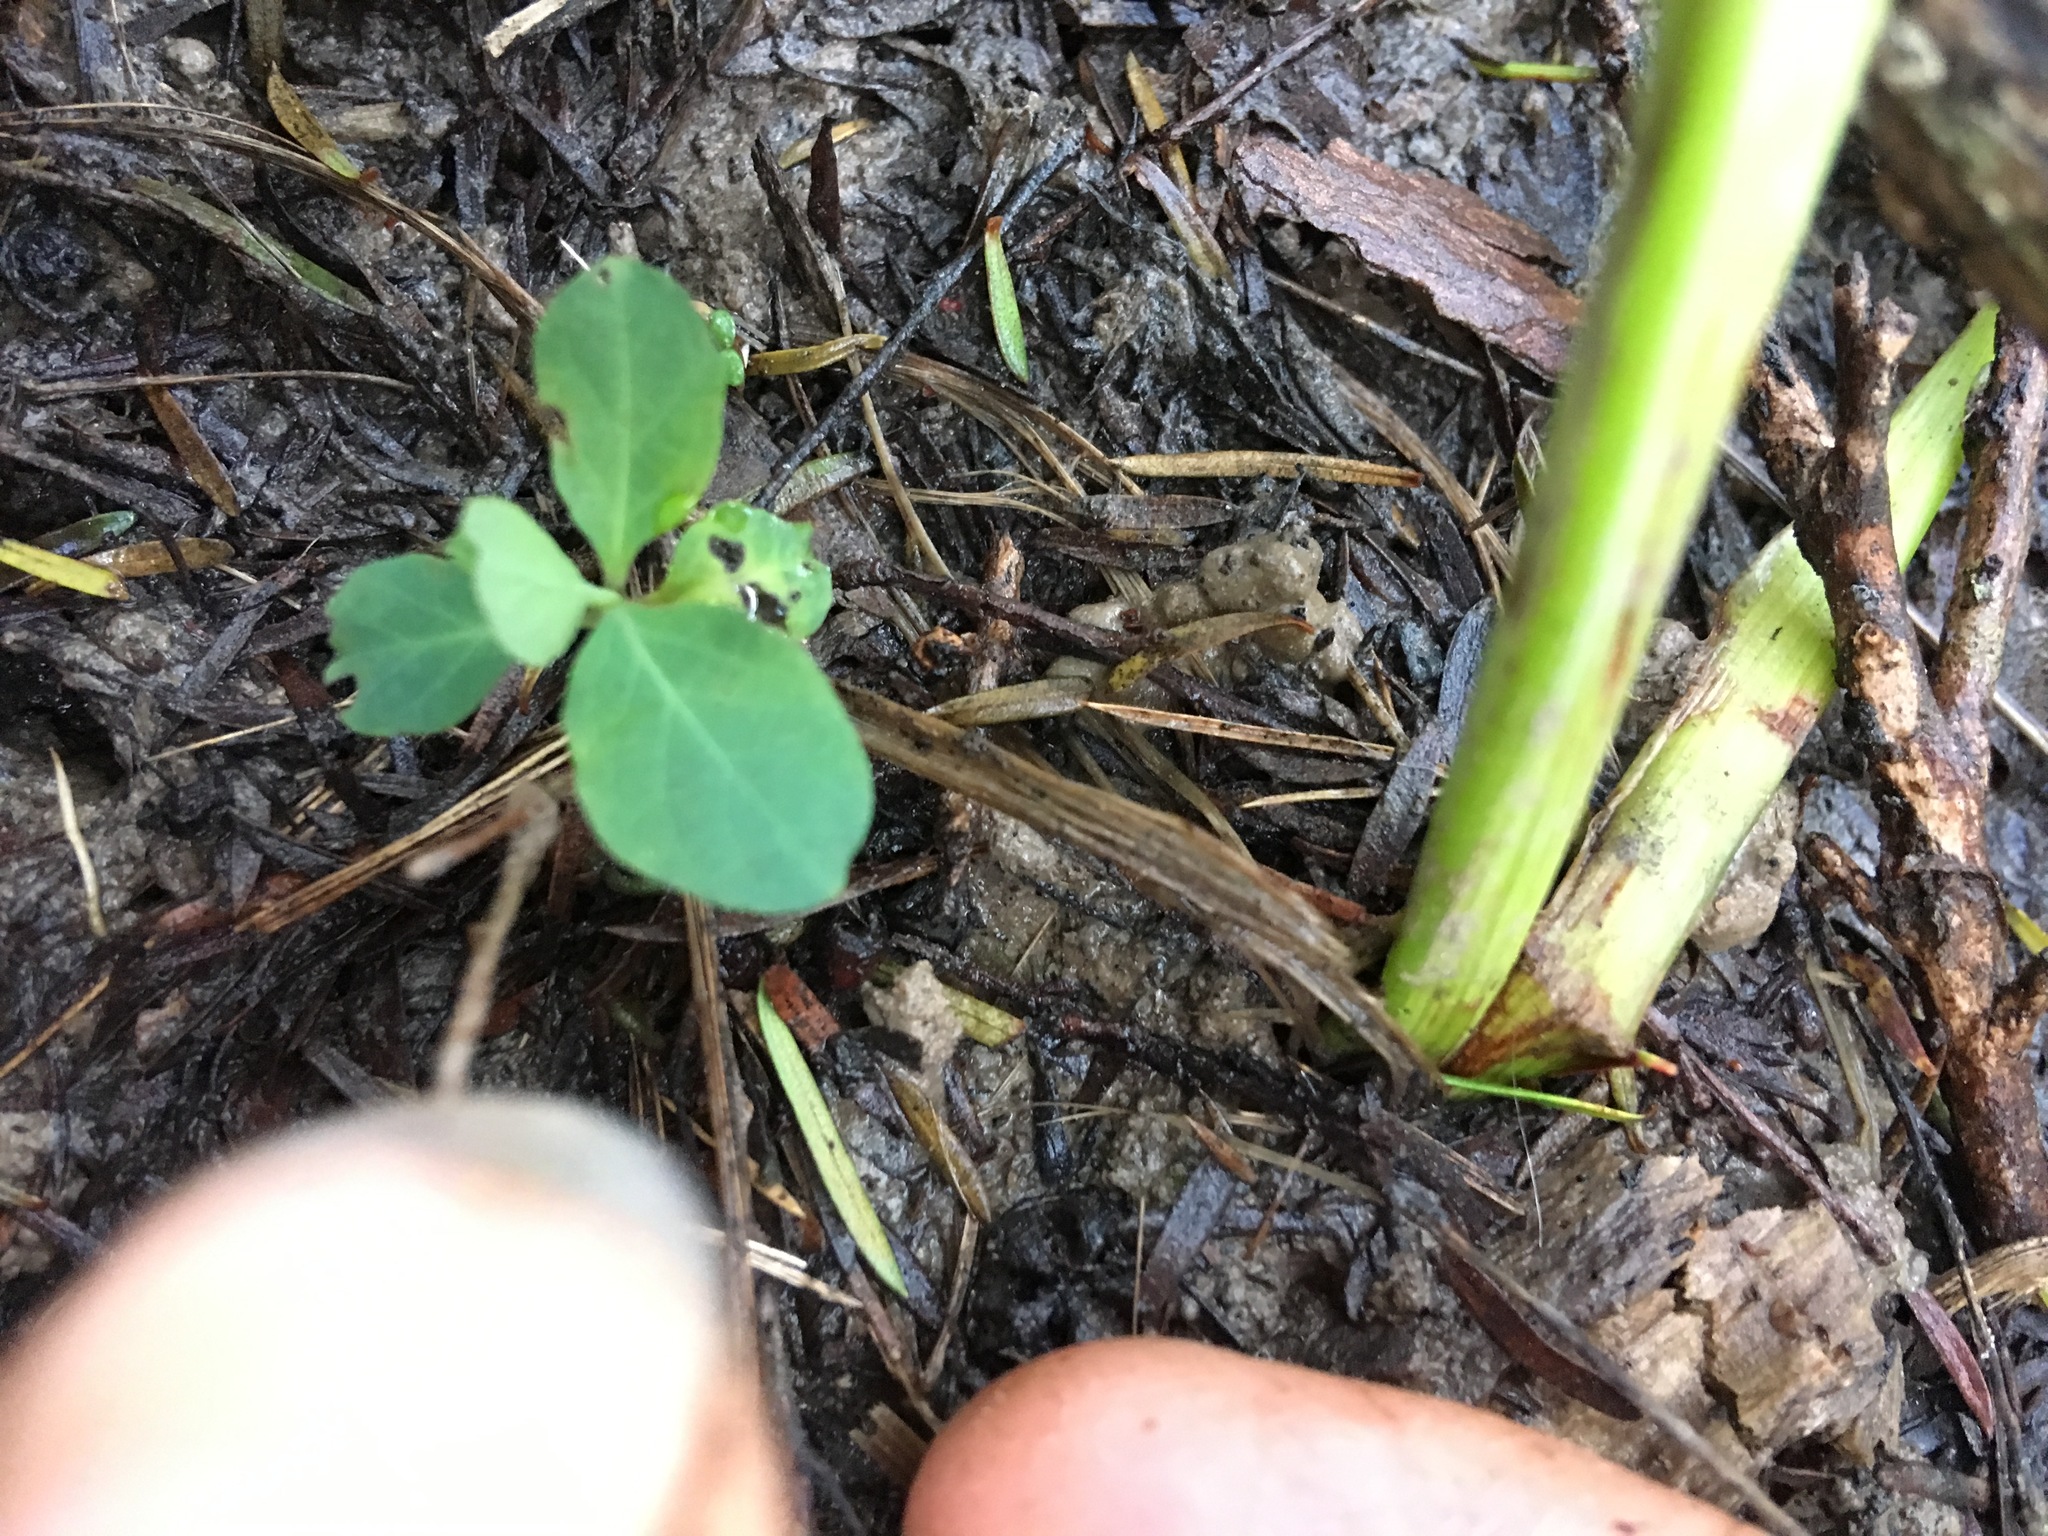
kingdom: Plantae
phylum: Tracheophyta
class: Magnoliopsida
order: Dipsacales
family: Caprifoliaceae
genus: Lonicera
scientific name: Lonicera japonica
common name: Japanese honeysuckle
